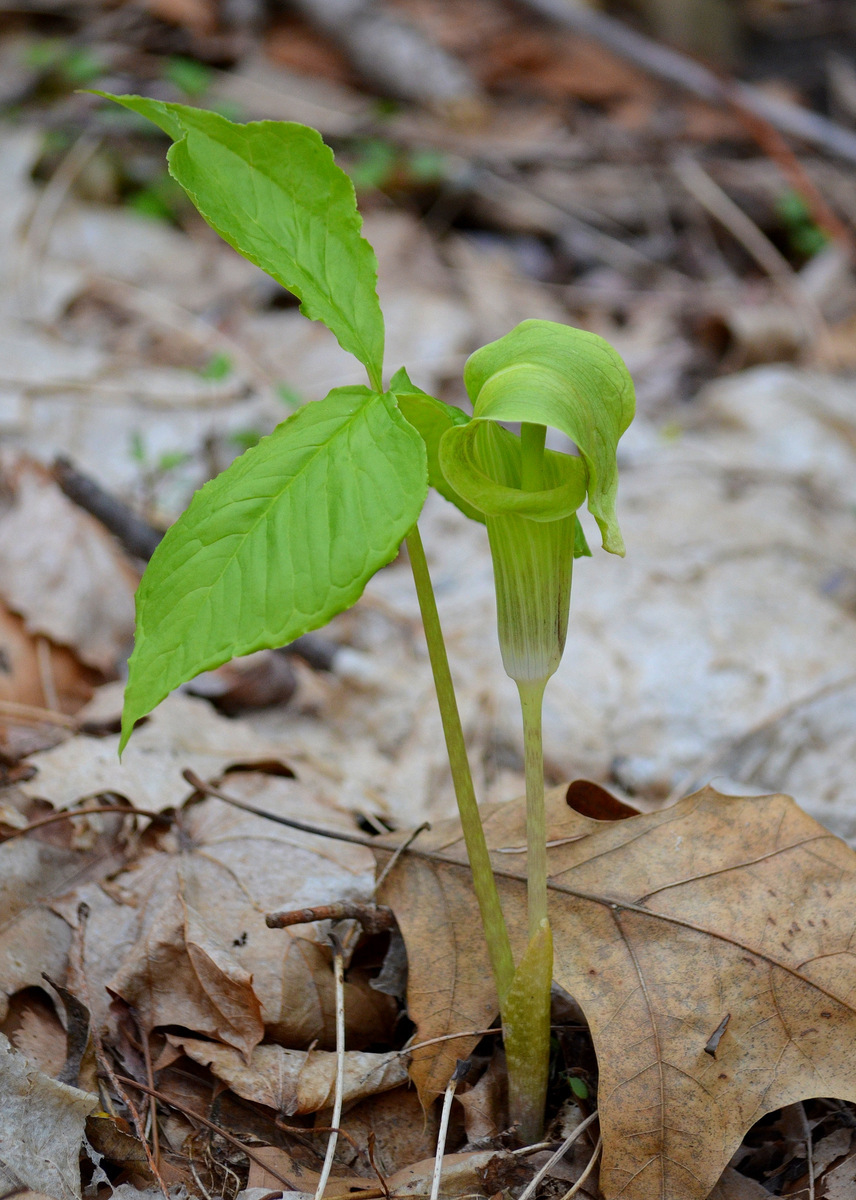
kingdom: Plantae
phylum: Tracheophyta
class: Liliopsida
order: Alismatales
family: Araceae
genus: Arisaema
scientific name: Arisaema triphyllum
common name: Jack-in-the-pulpit
